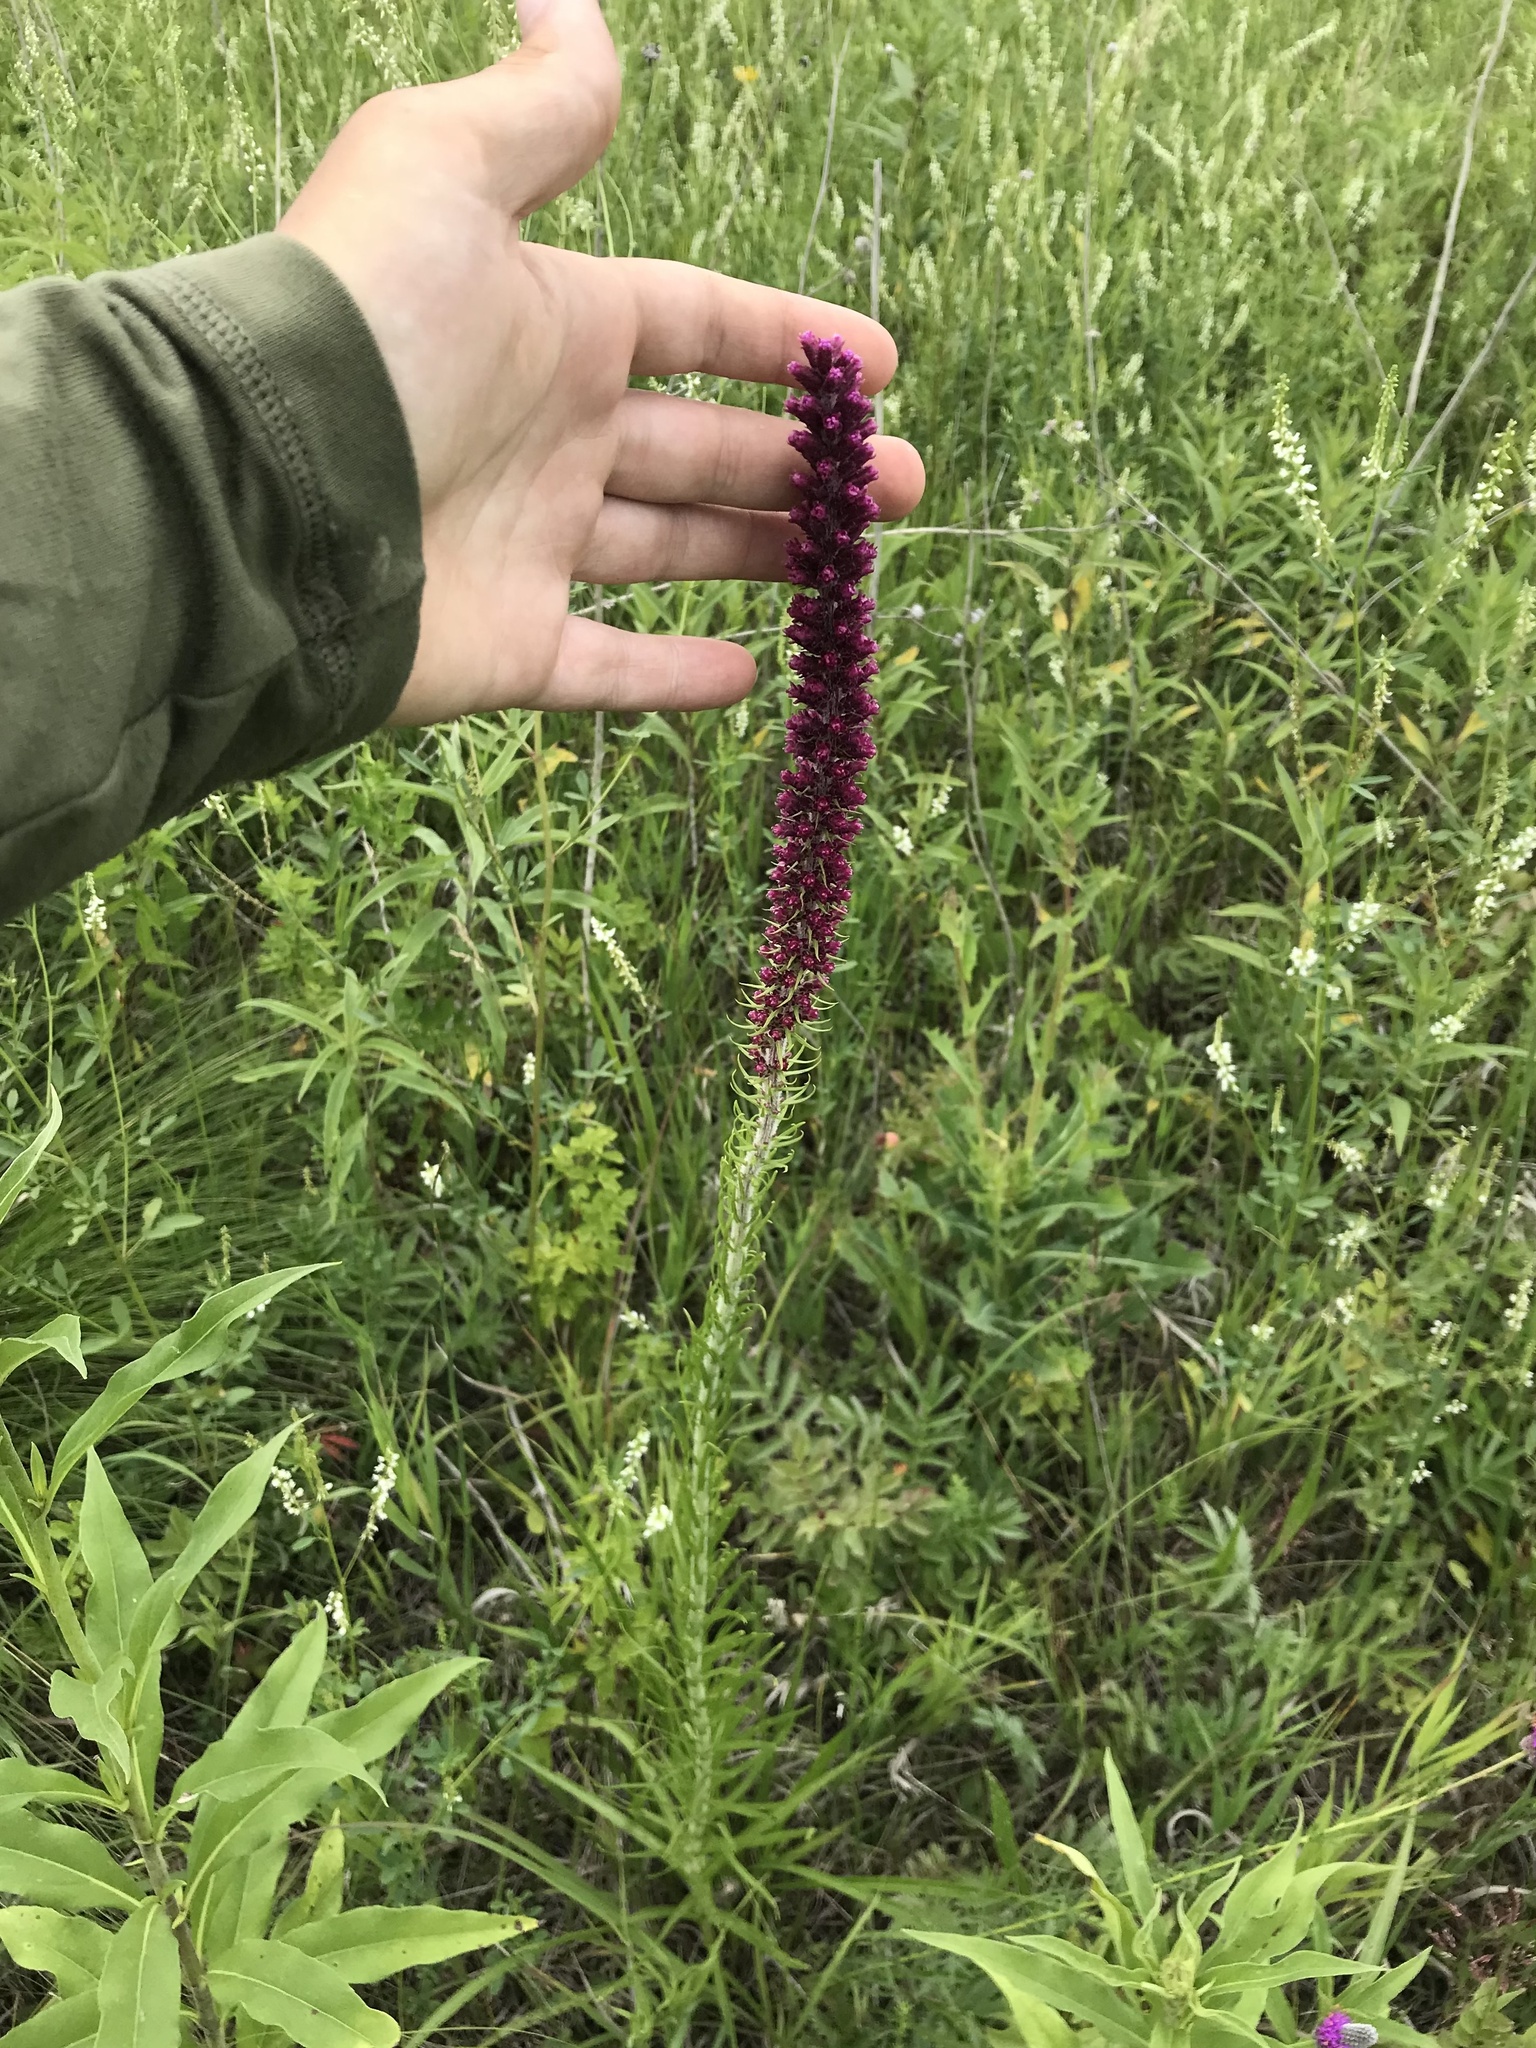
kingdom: Plantae
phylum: Tracheophyta
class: Magnoliopsida
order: Asterales
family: Asteraceae
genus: Liatris
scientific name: Liatris pycnostachya
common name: Cattail gayfeather
